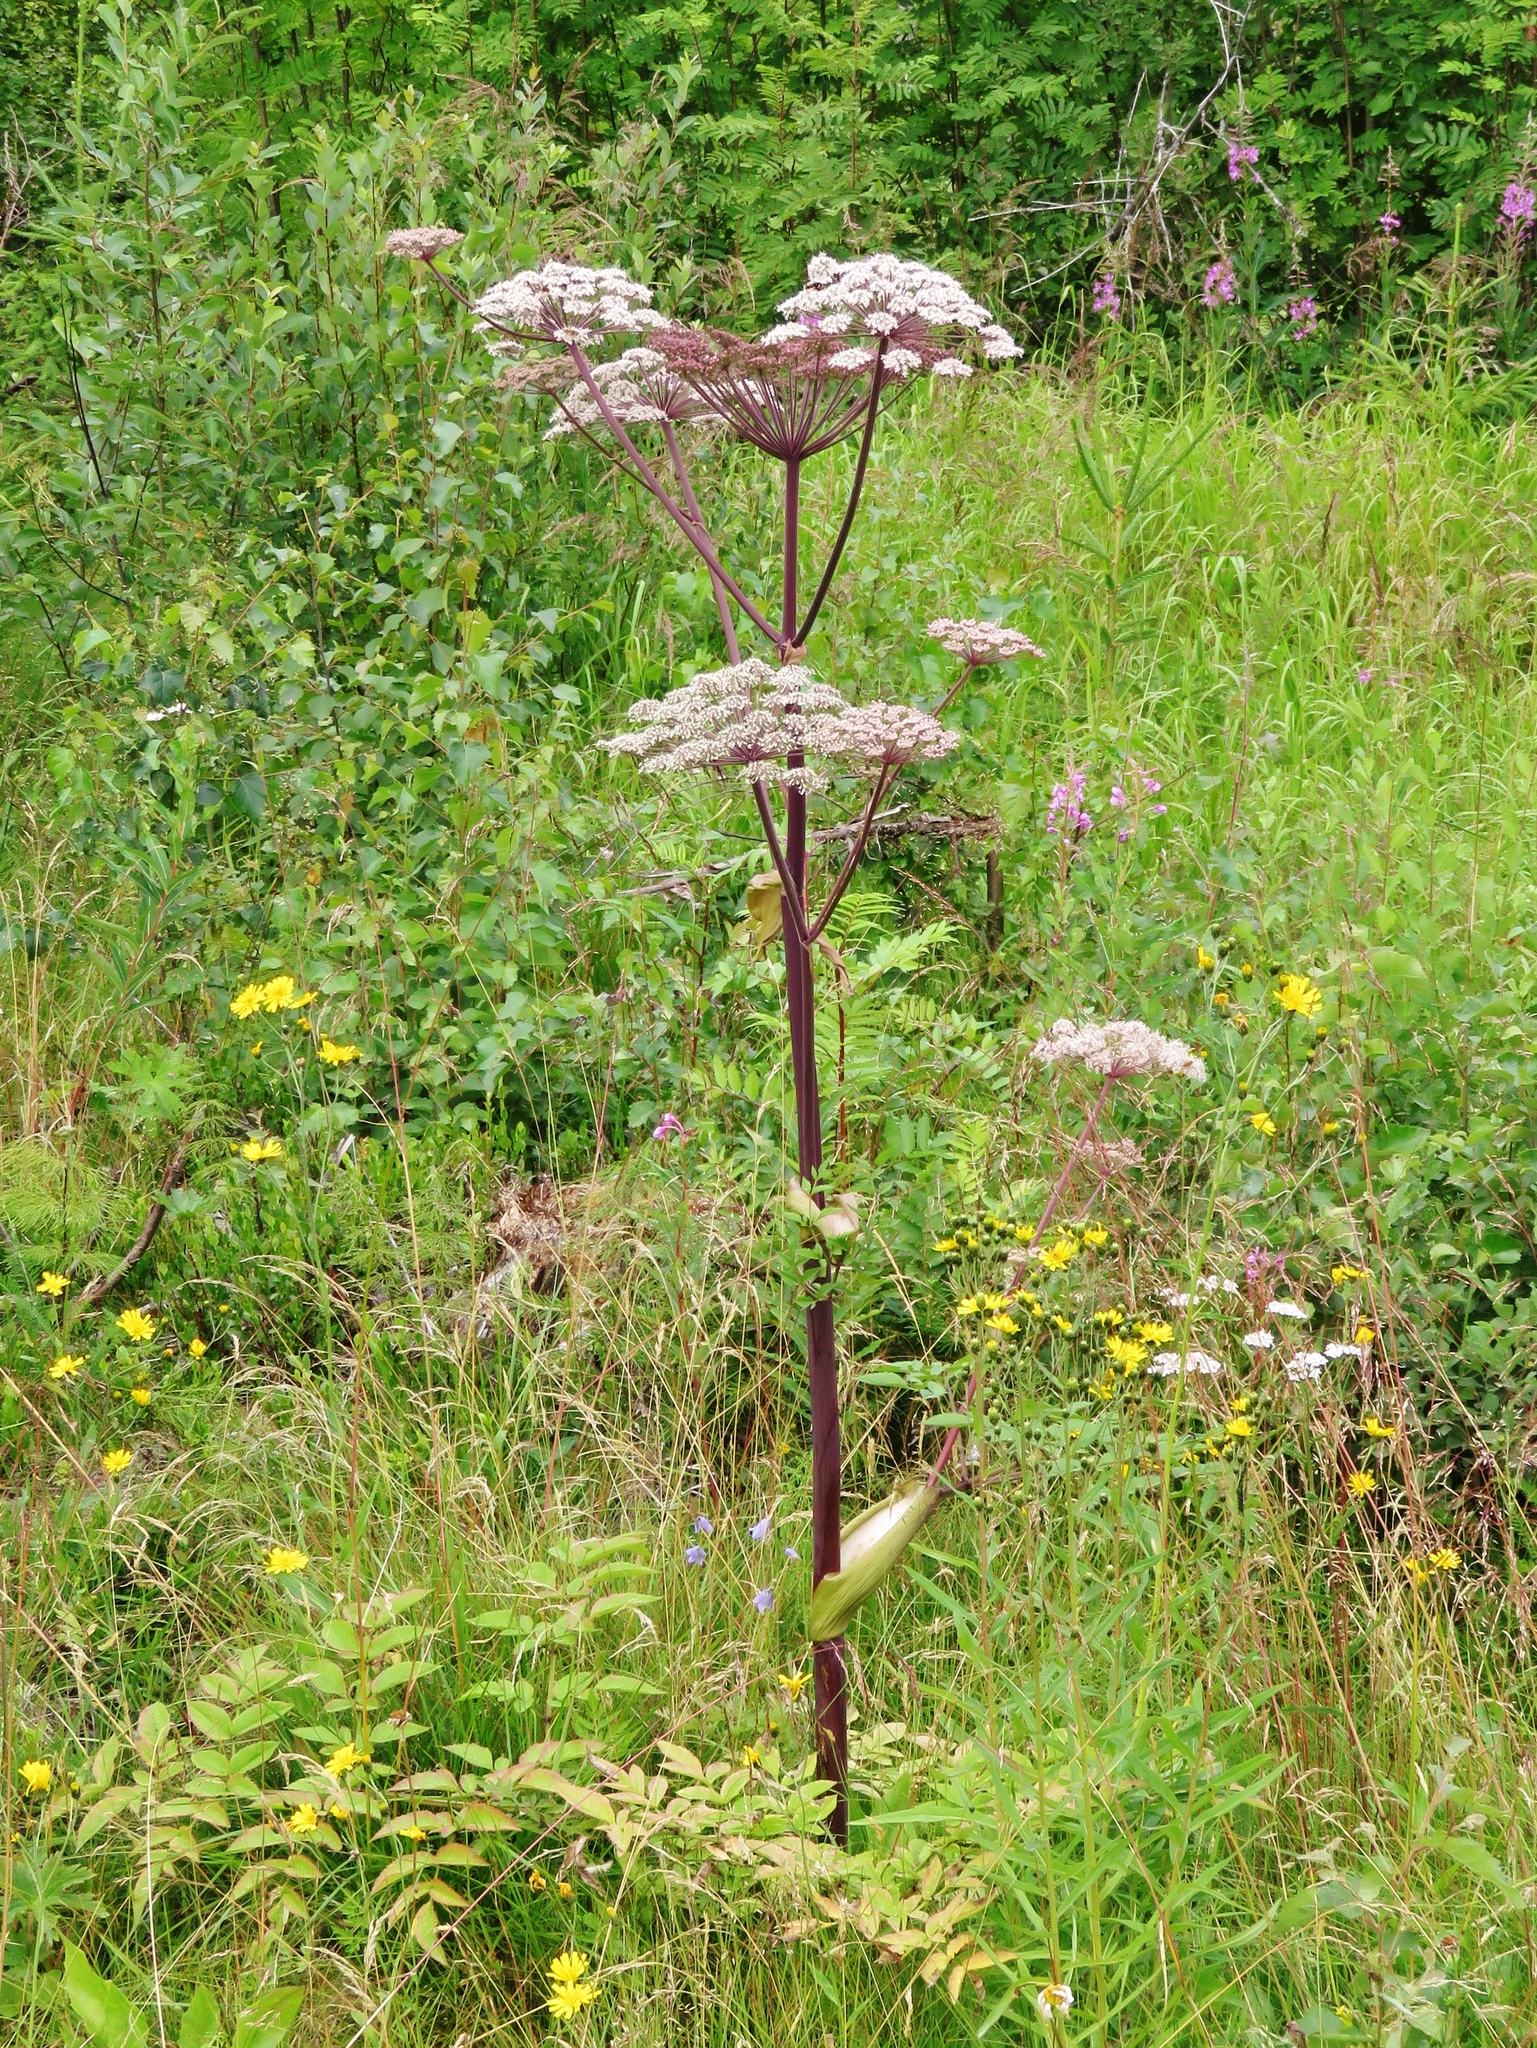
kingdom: Plantae
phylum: Tracheophyta
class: Magnoliopsida
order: Apiales
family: Apiaceae
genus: Angelica
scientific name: Angelica sylvestris
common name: Wild angelica
